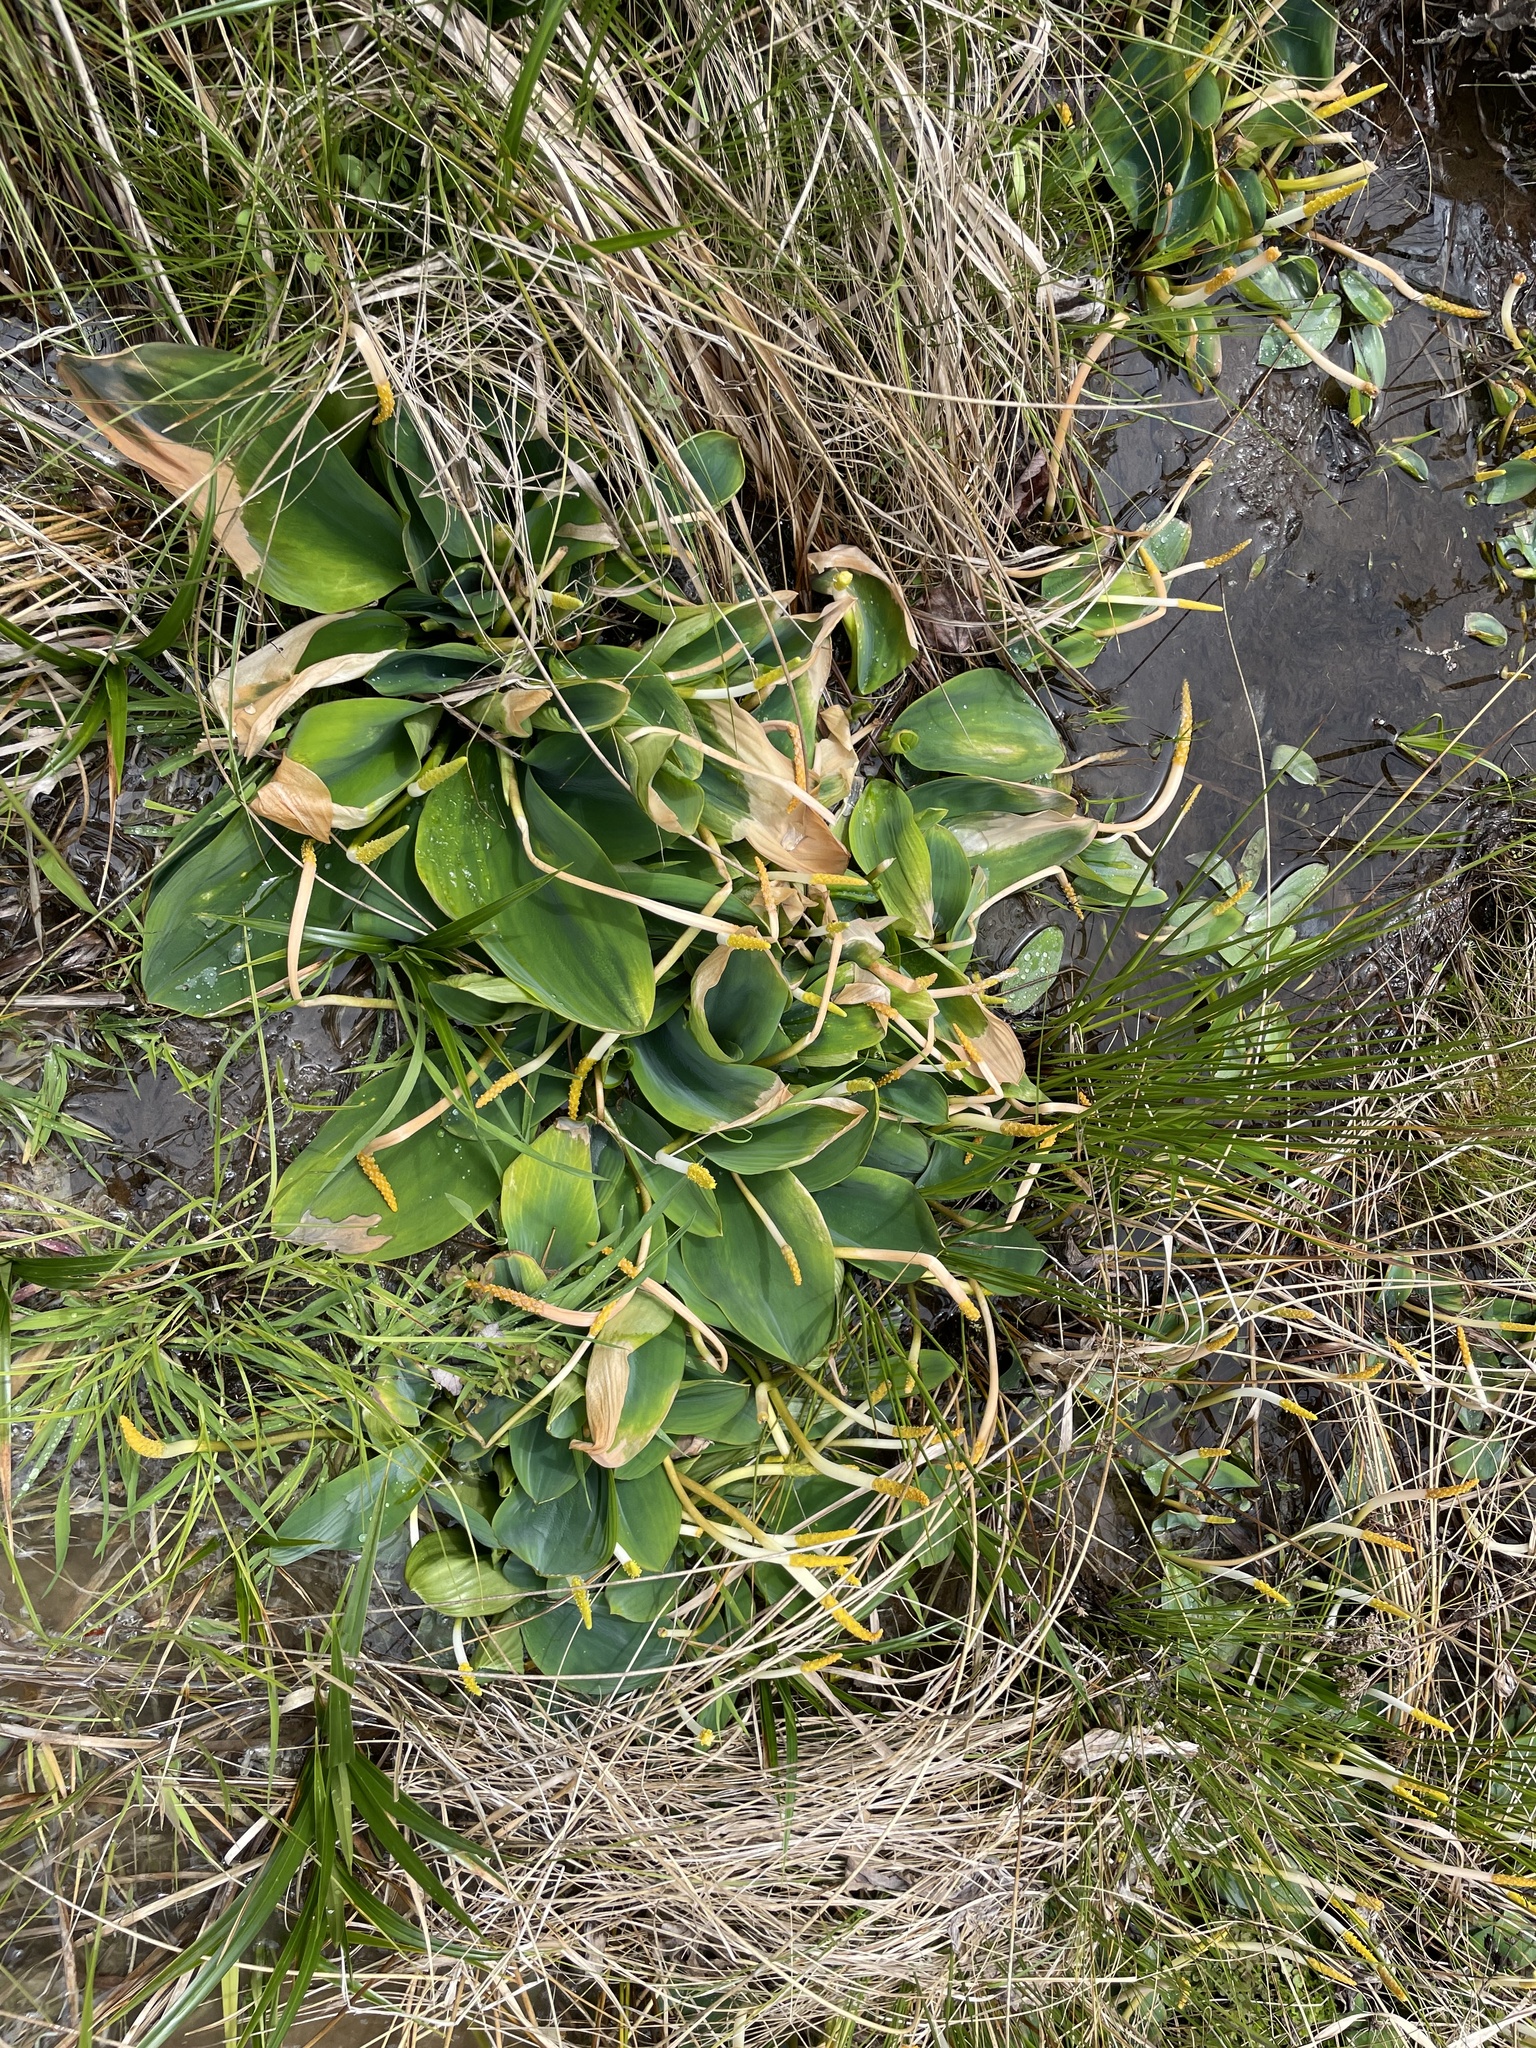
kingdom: Plantae
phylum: Tracheophyta
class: Liliopsida
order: Alismatales
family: Araceae
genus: Orontium
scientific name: Orontium aquaticum
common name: Golden-club
